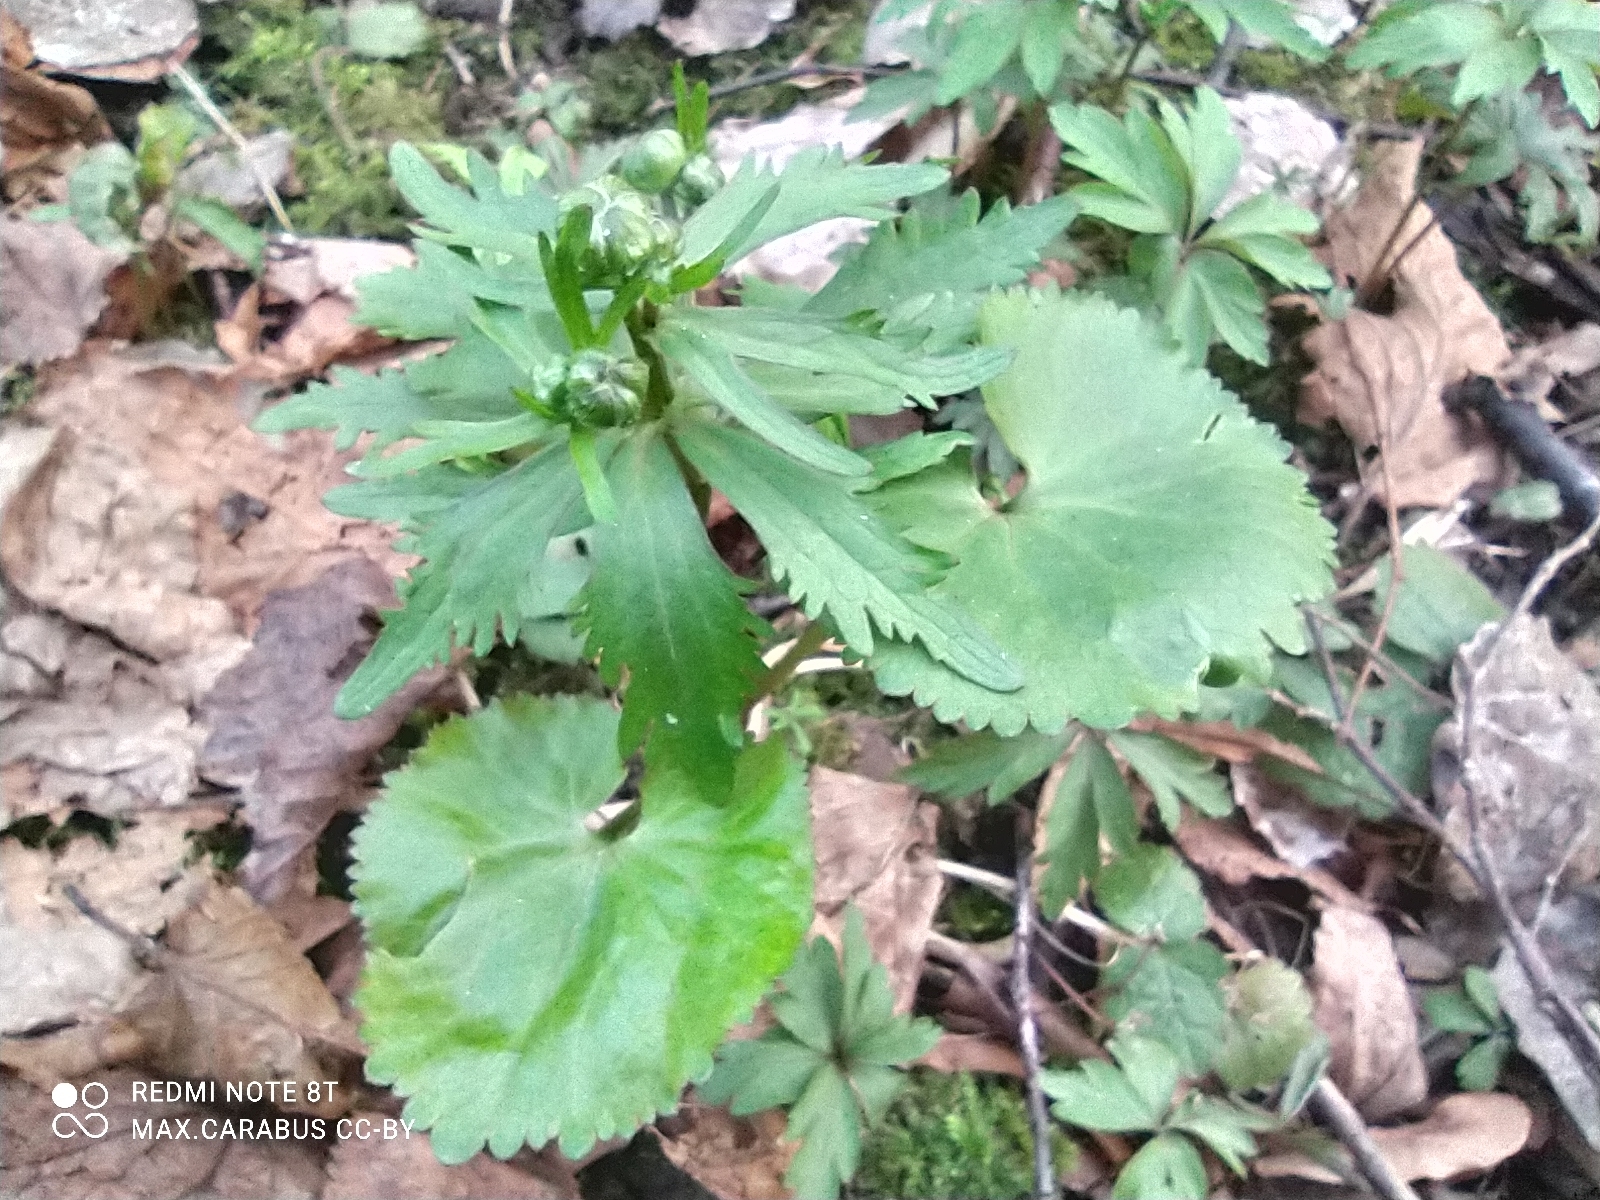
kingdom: Plantae
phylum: Tracheophyta
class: Magnoliopsida
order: Ranunculales
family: Ranunculaceae
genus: Ranunculus
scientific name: Ranunculus cassubicus
